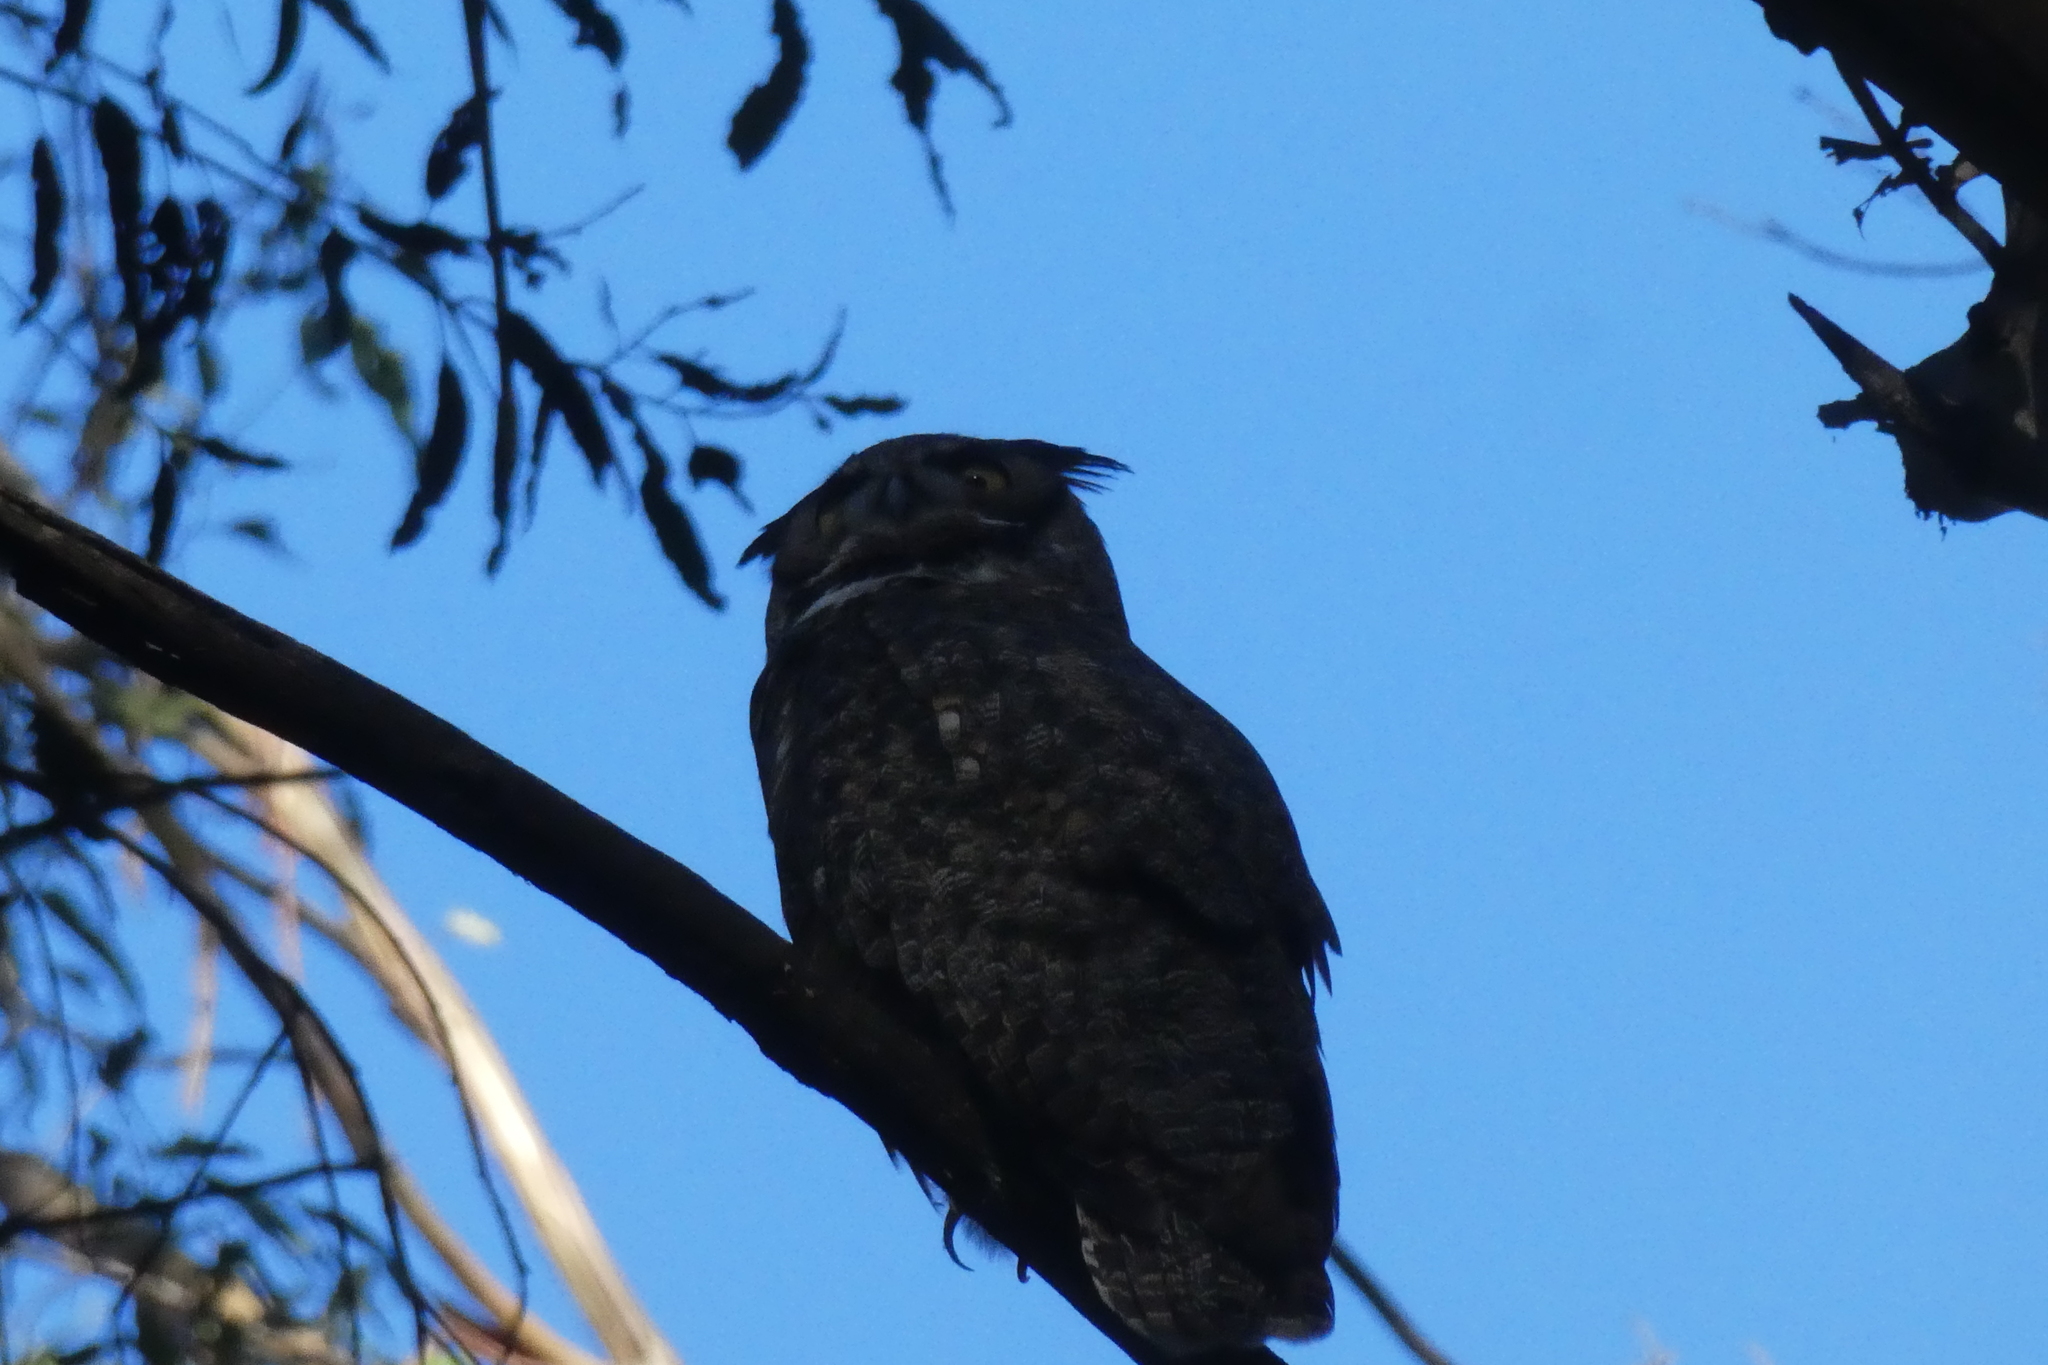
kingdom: Animalia
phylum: Chordata
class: Aves
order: Strigiformes
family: Strigidae
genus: Bubo
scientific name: Bubo virginianus
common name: Great horned owl
